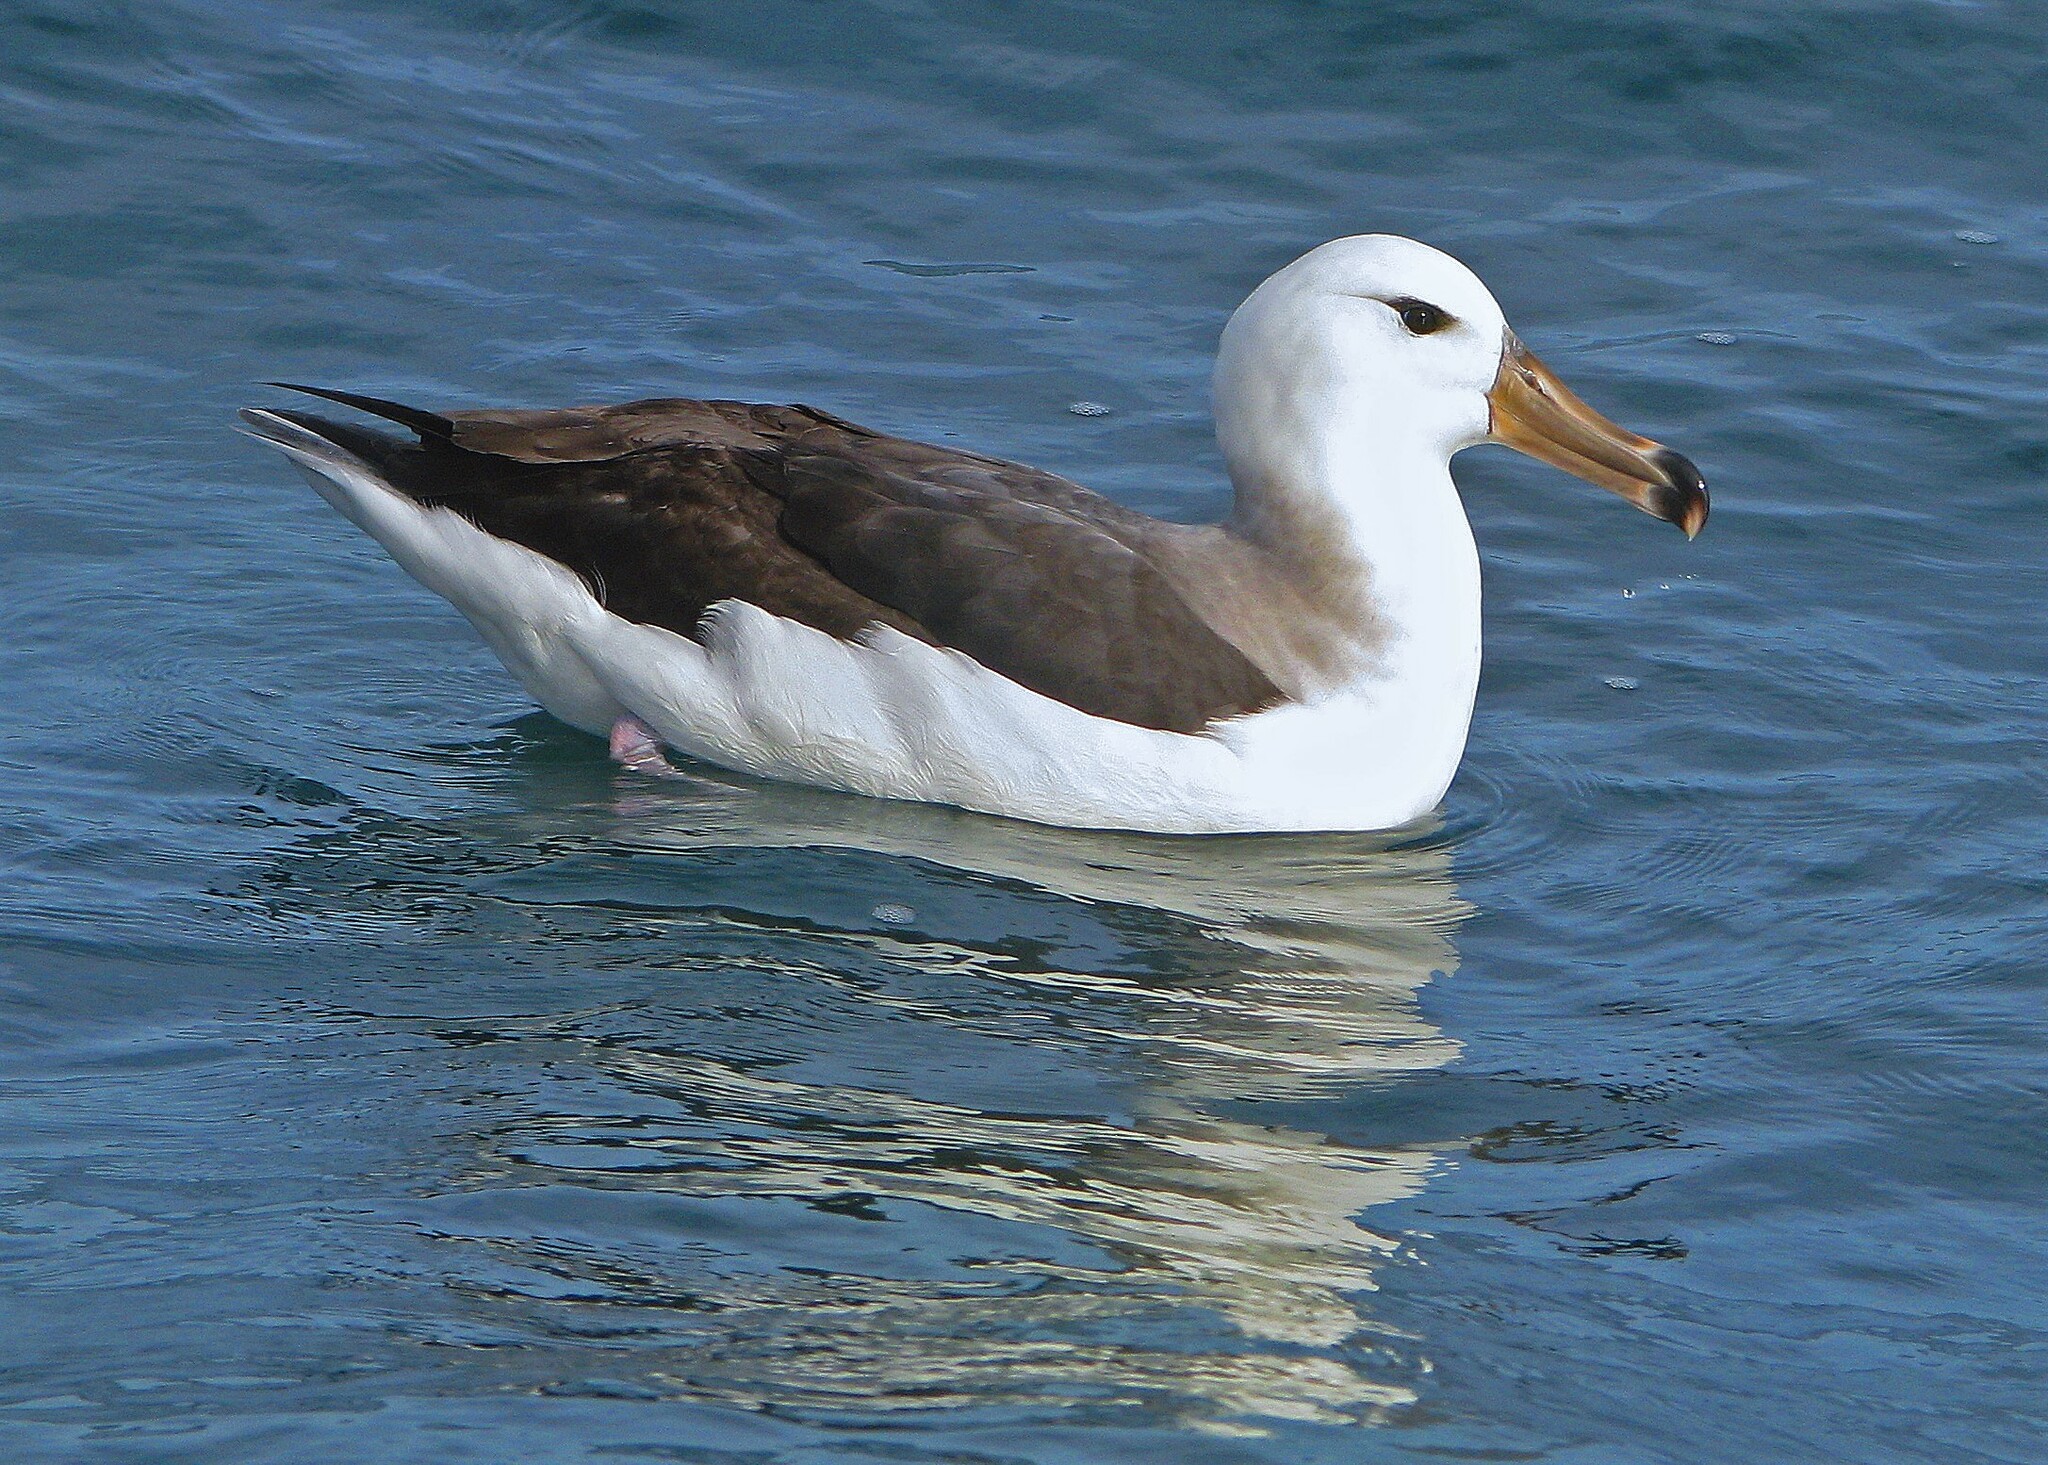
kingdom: Animalia
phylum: Chordata
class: Aves
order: Procellariiformes
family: Diomedeidae
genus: Thalassarche
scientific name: Thalassarche melanophris
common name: Black-browed albatross
